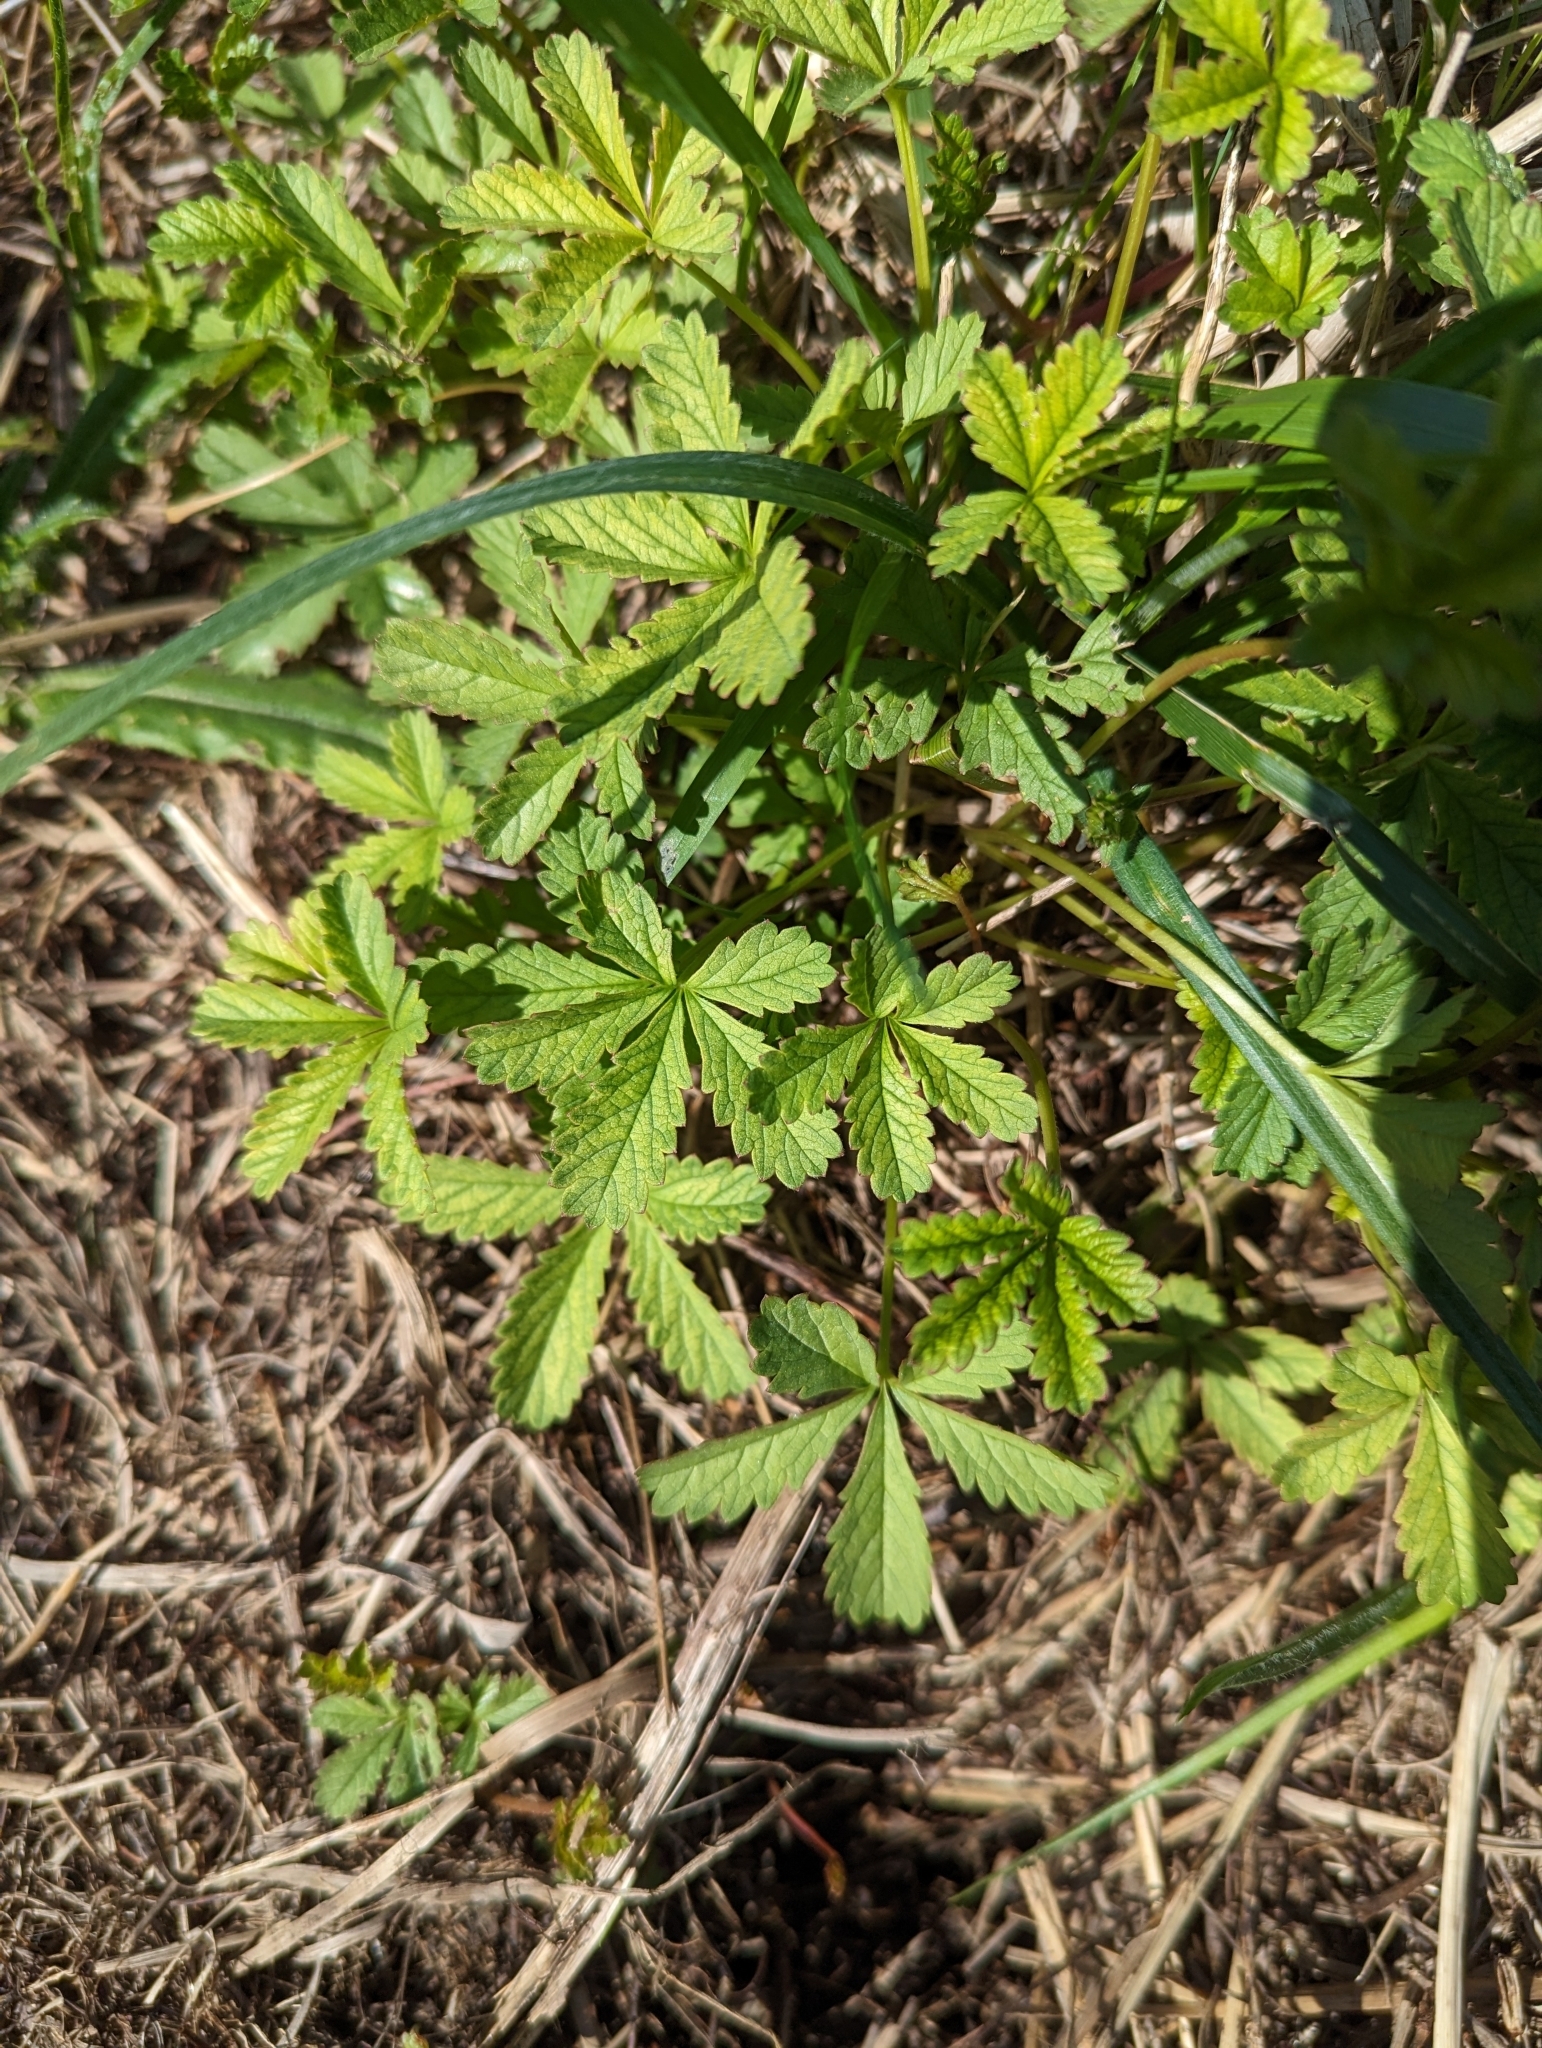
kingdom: Plantae
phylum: Tracheophyta
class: Magnoliopsida
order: Rosales
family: Rosaceae
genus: Potentilla
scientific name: Potentilla reptans
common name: Creeping cinquefoil
